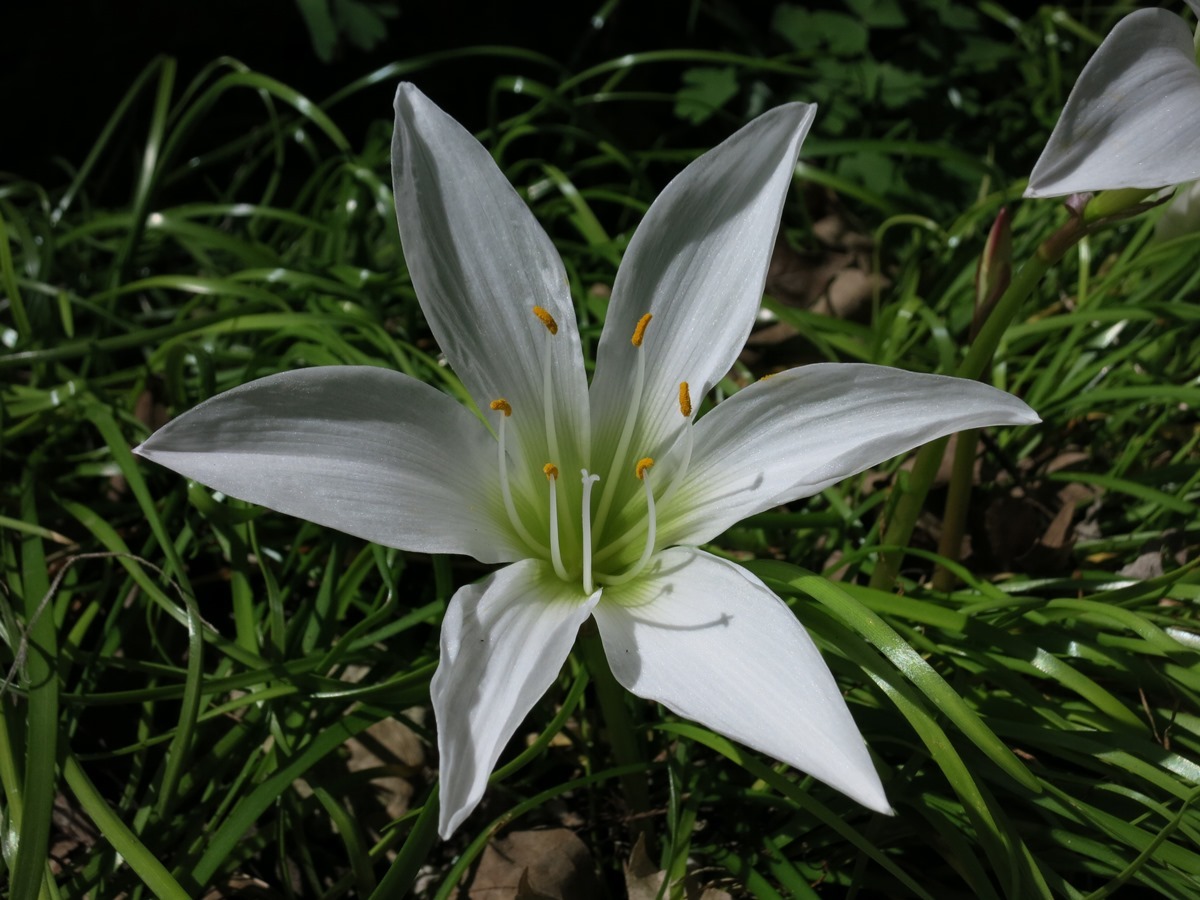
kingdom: Plantae
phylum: Tracheophyta
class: Liliopsida
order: Asparagales
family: Amaryllidaceae
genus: Zephyranthes
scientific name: Zephyranthes atamasco
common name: Atamasco lily
